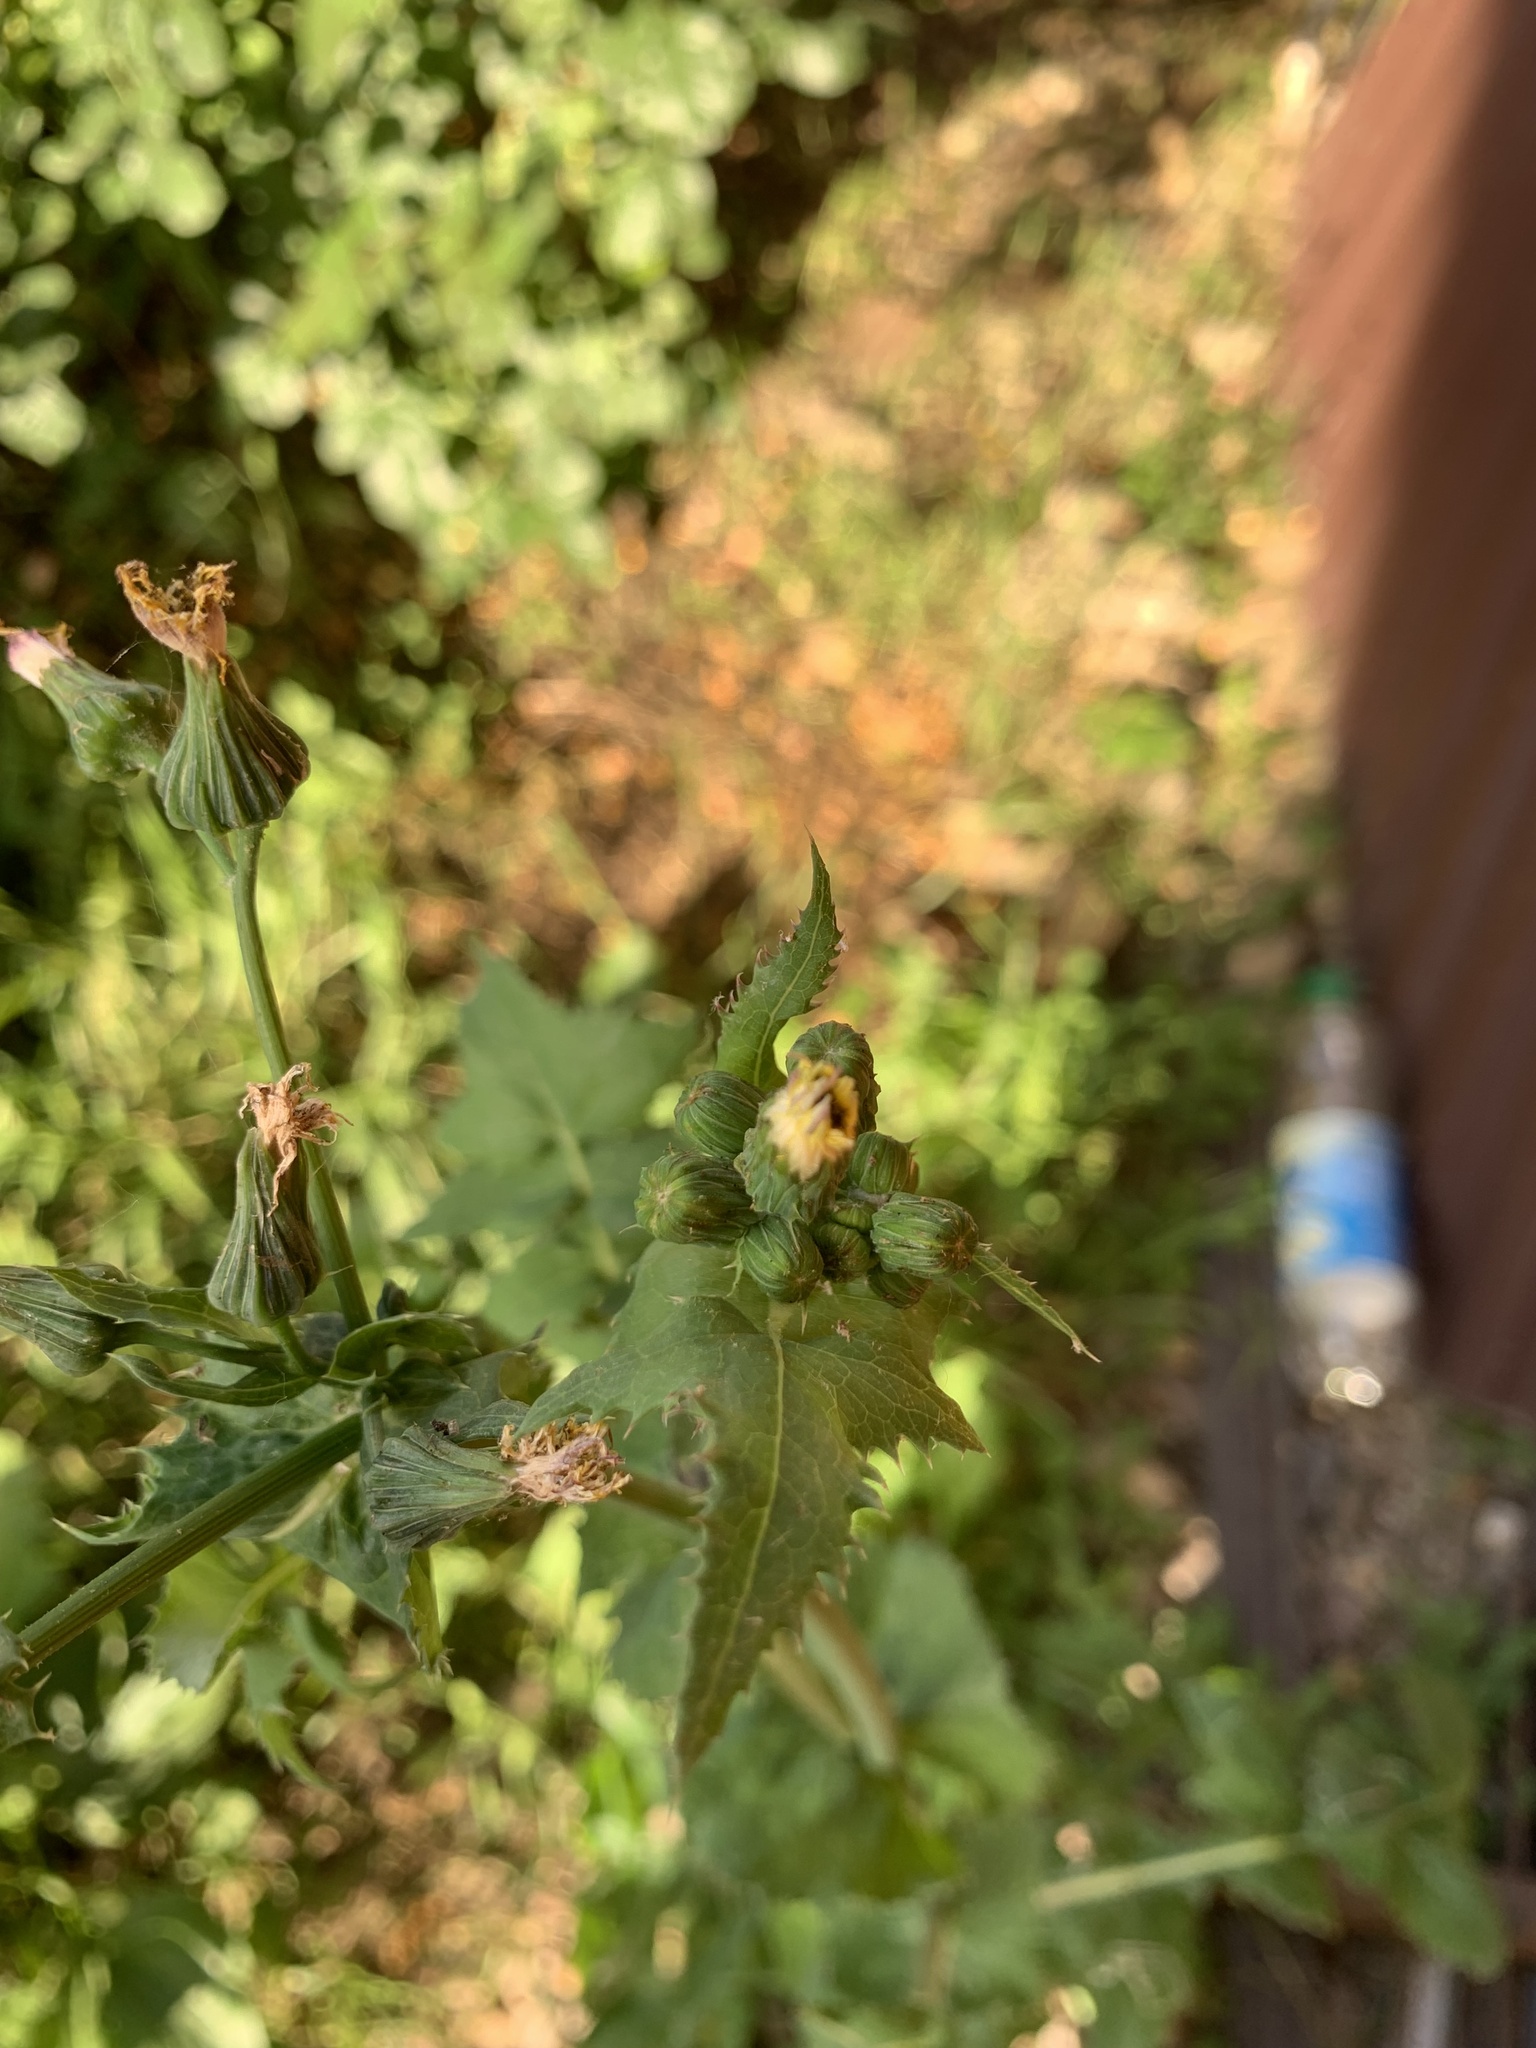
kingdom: Plantae
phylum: Tracheophyta
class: Magnoliopsida
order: Asterales
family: Asteraceae
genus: Sonchus
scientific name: Sonchus oleraceus
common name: Common sowthistle
